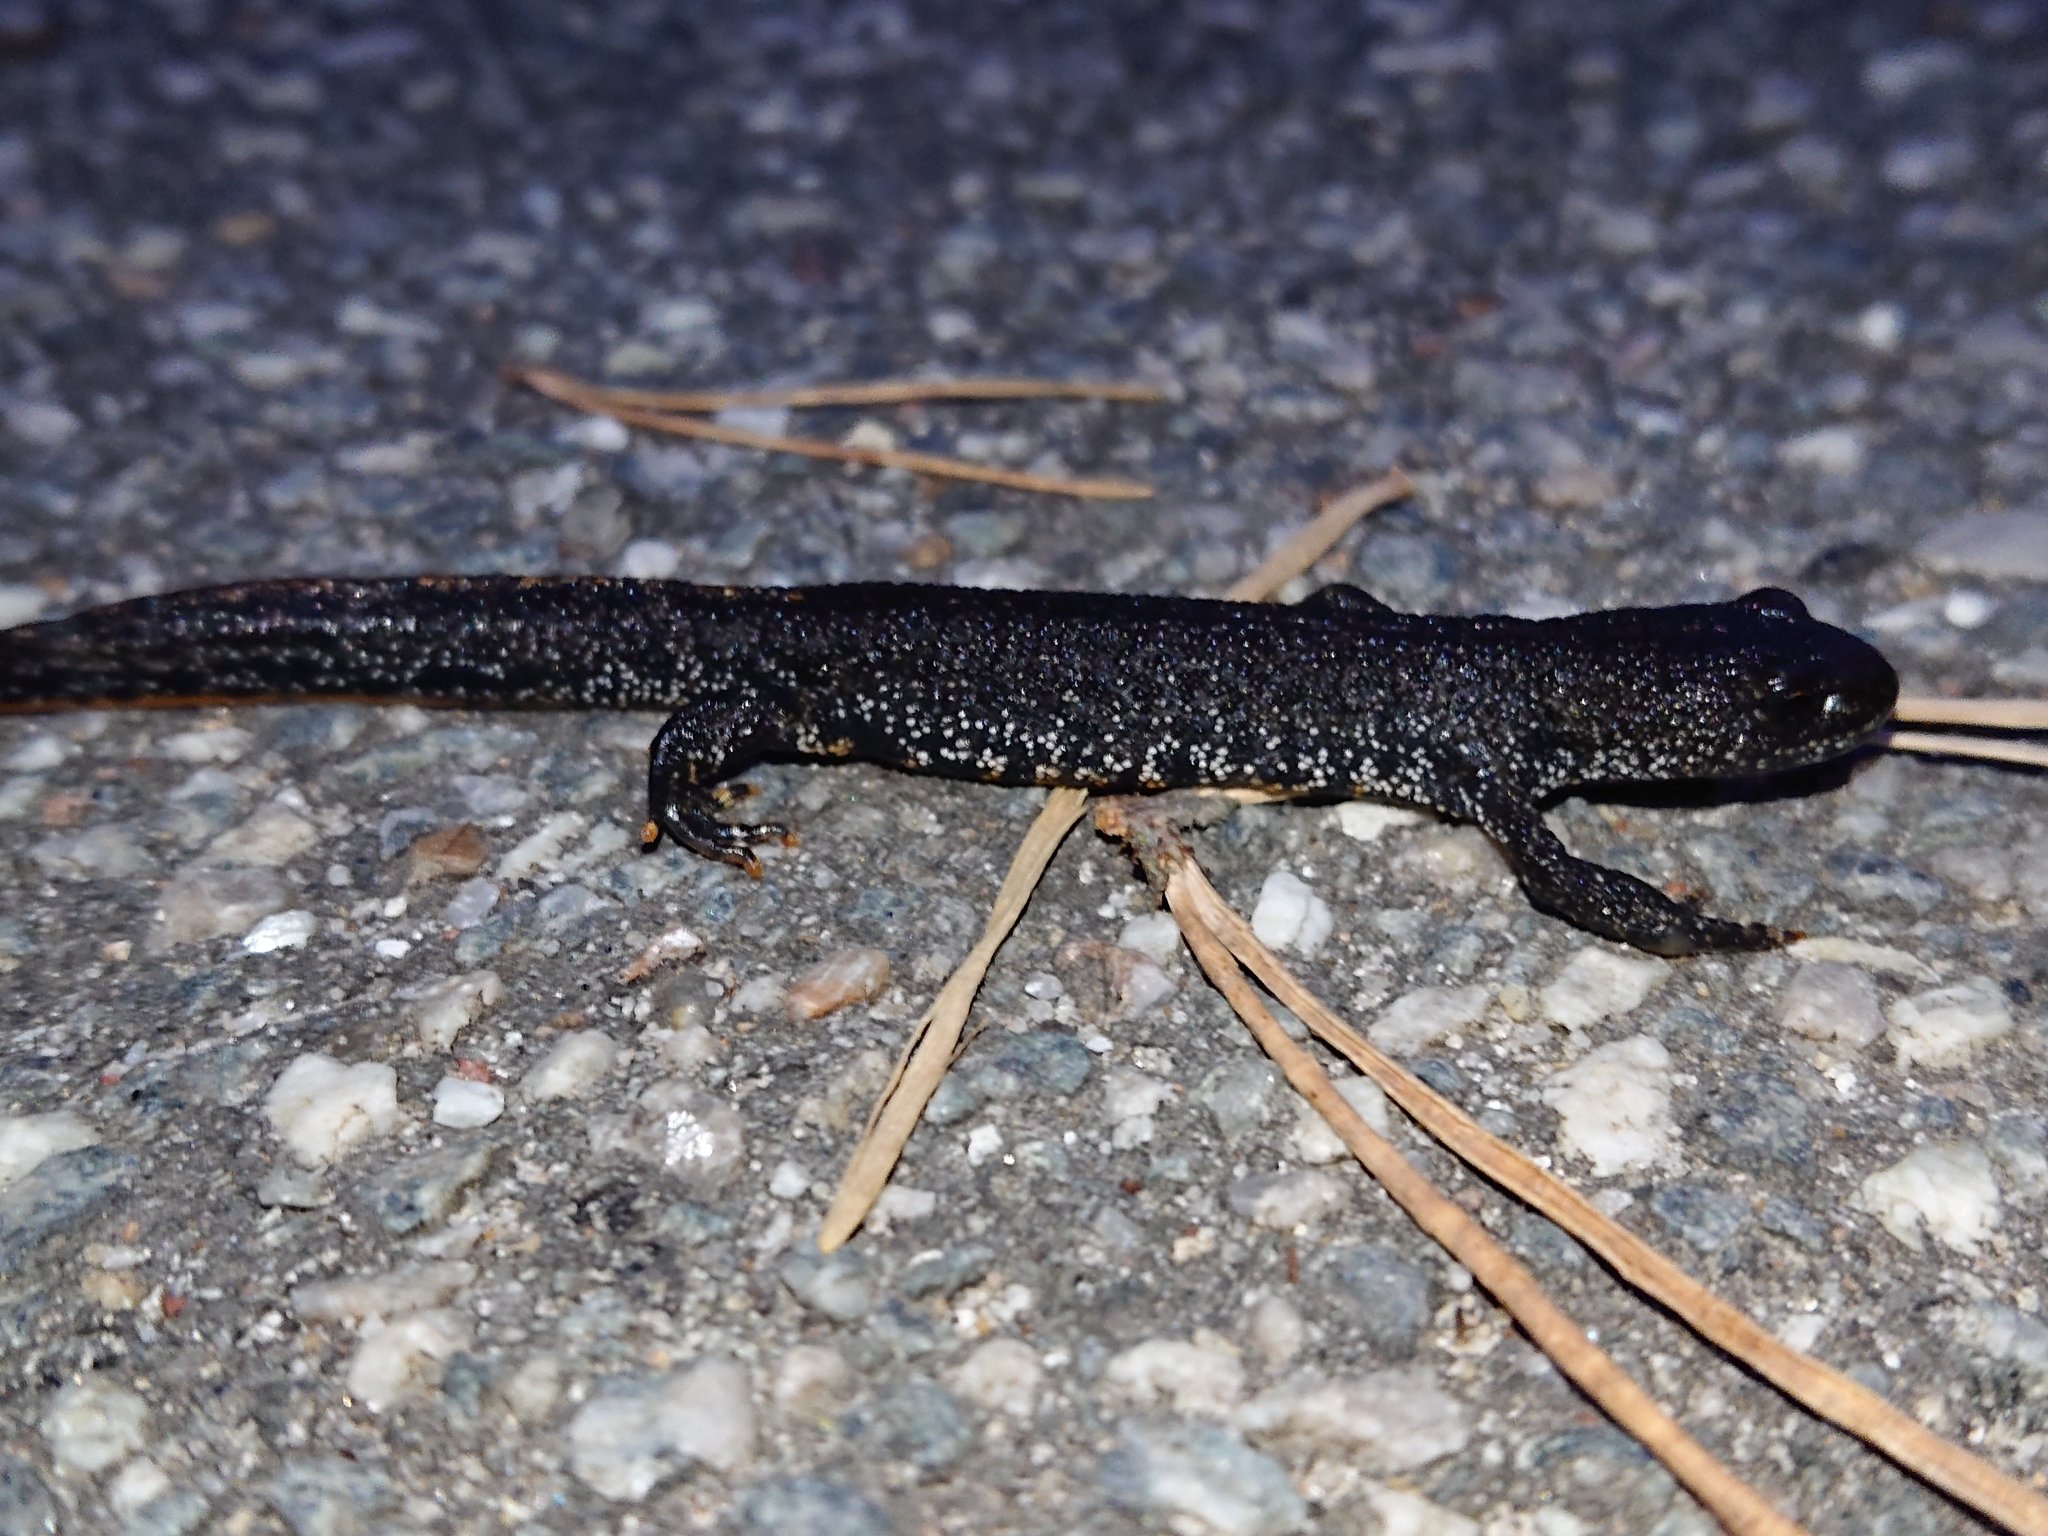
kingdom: Animalia
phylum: Chordata
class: Amphibia
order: Caudata
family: Salamandridae
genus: Triturus
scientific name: Triturus cristatus
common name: Crested newt
